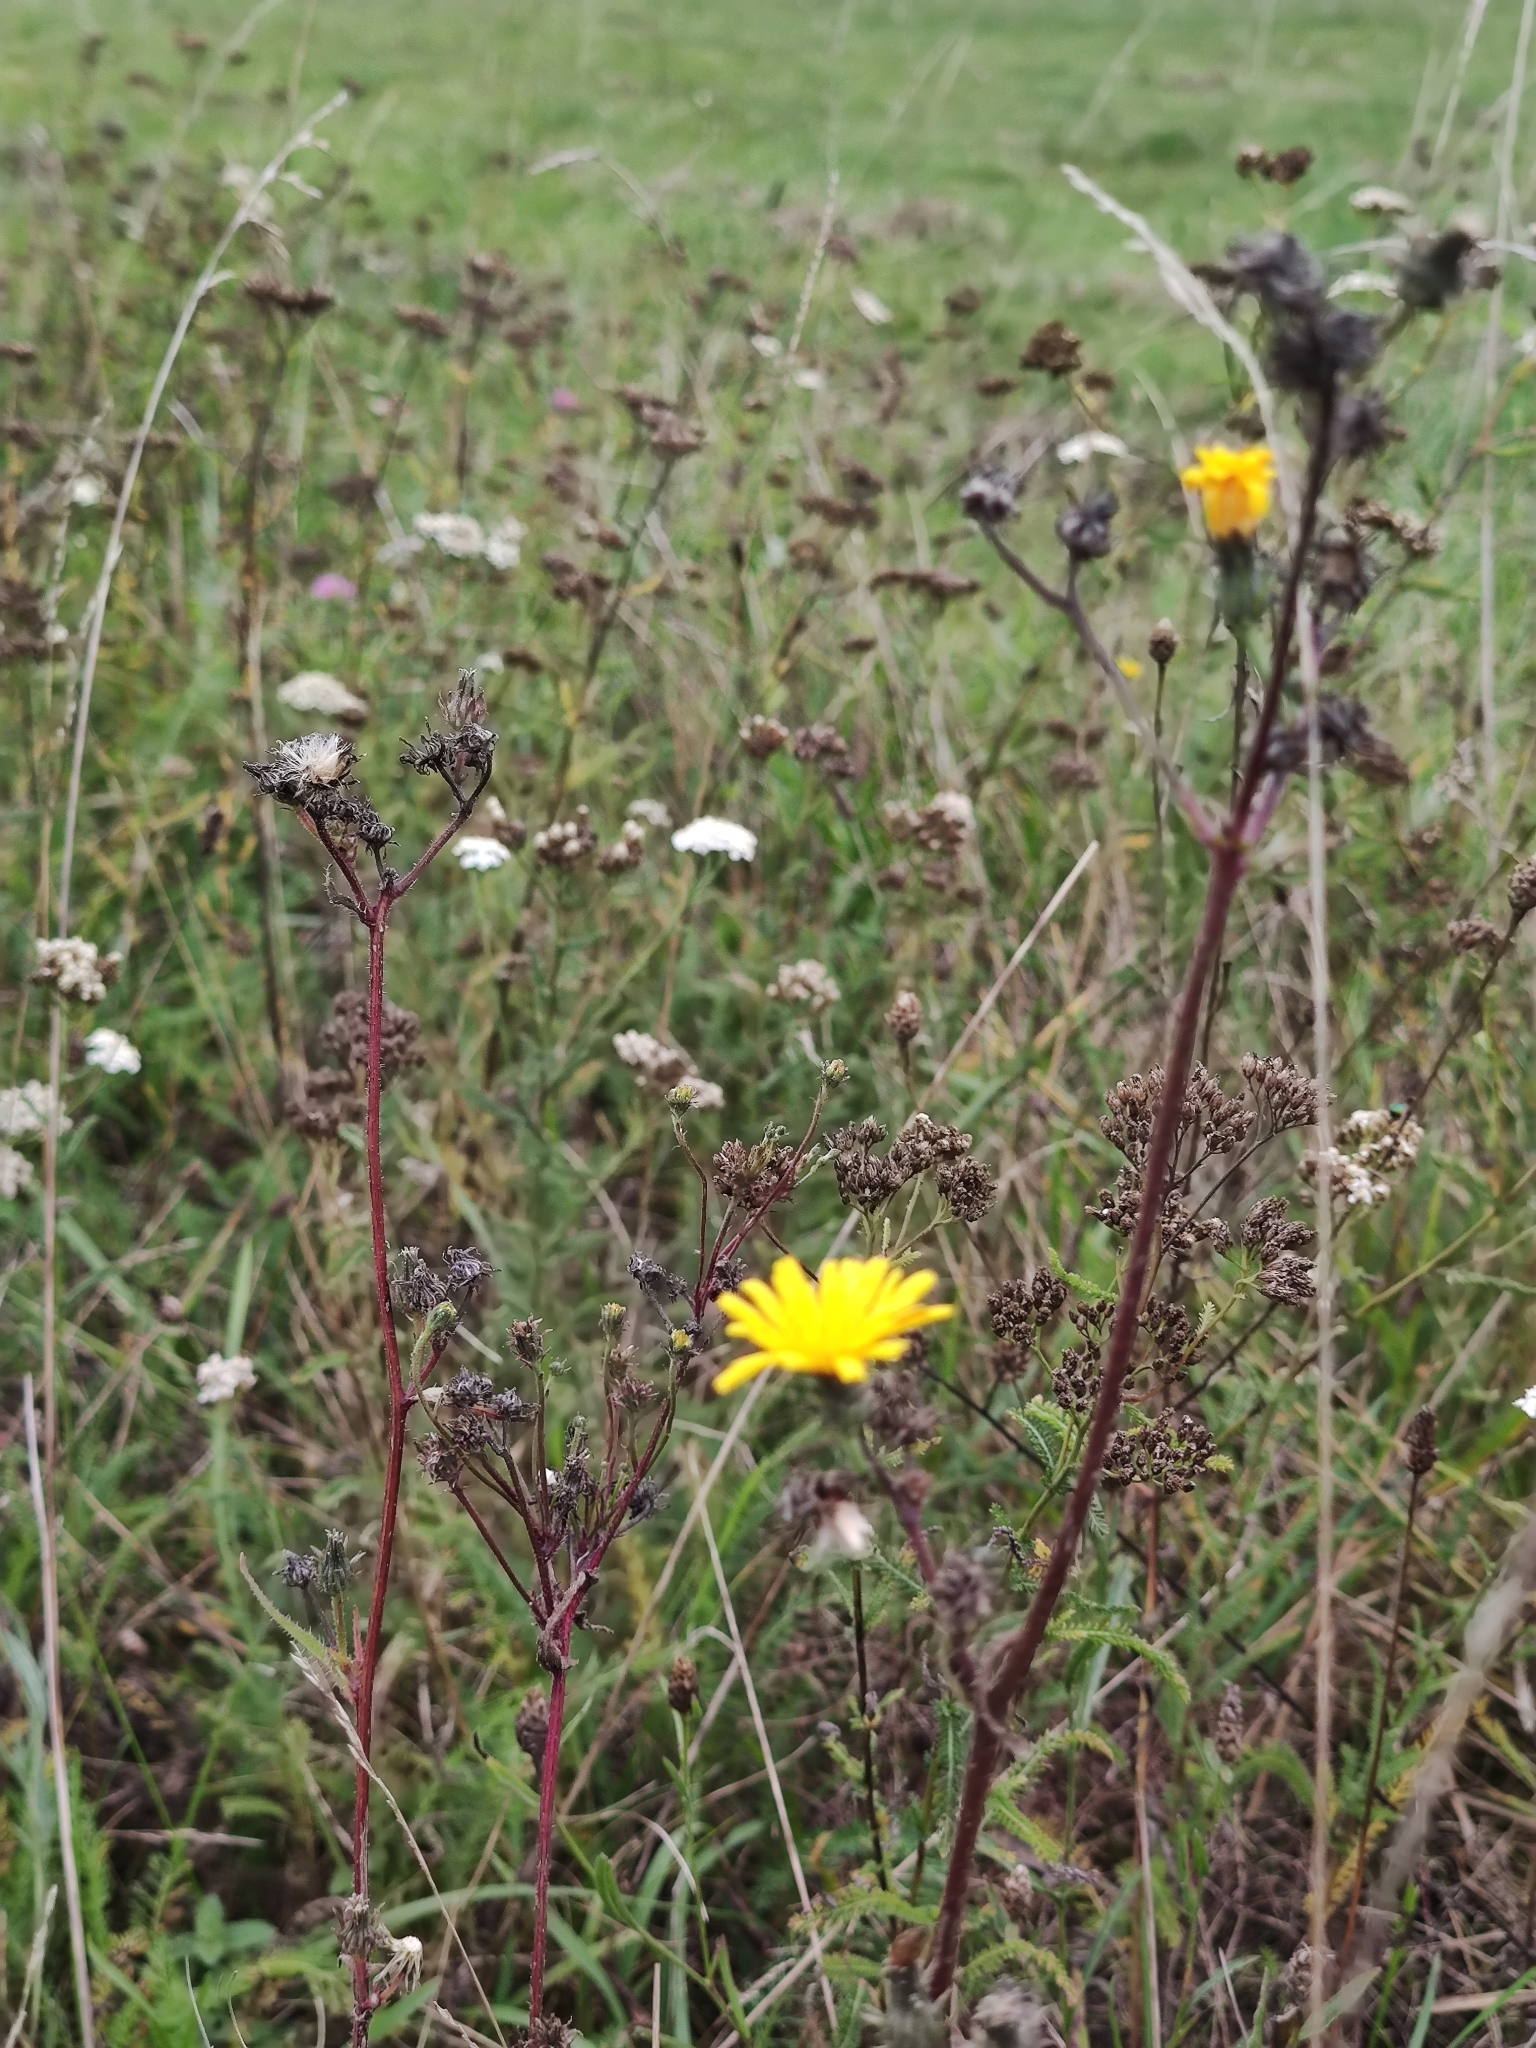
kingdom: Plantae
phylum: Tracheophyta
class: Magnoliopsida
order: Asterales
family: Asteraceae
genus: Picris
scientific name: Picris hieracioides
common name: Hawkweed oxtongue
